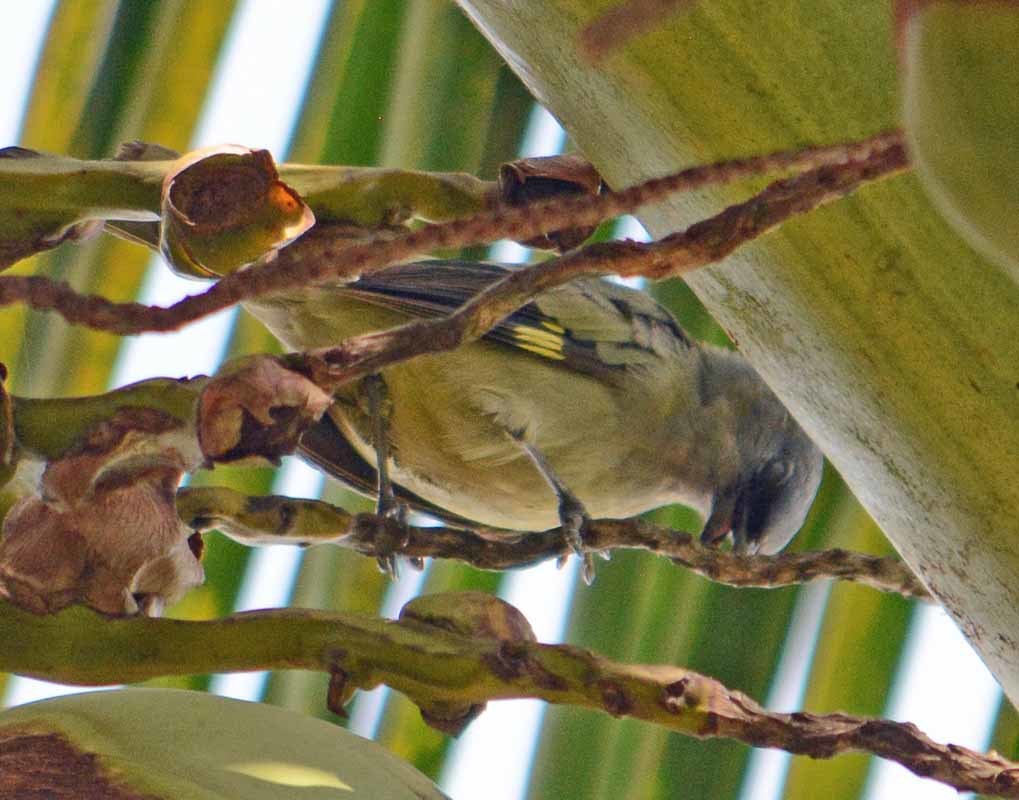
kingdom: Animalia
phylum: Chordata
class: Aves
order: Passeriformes
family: Thraupidae
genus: Thraupis
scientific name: Thraupis abbas
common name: Yellow-winged tanager
